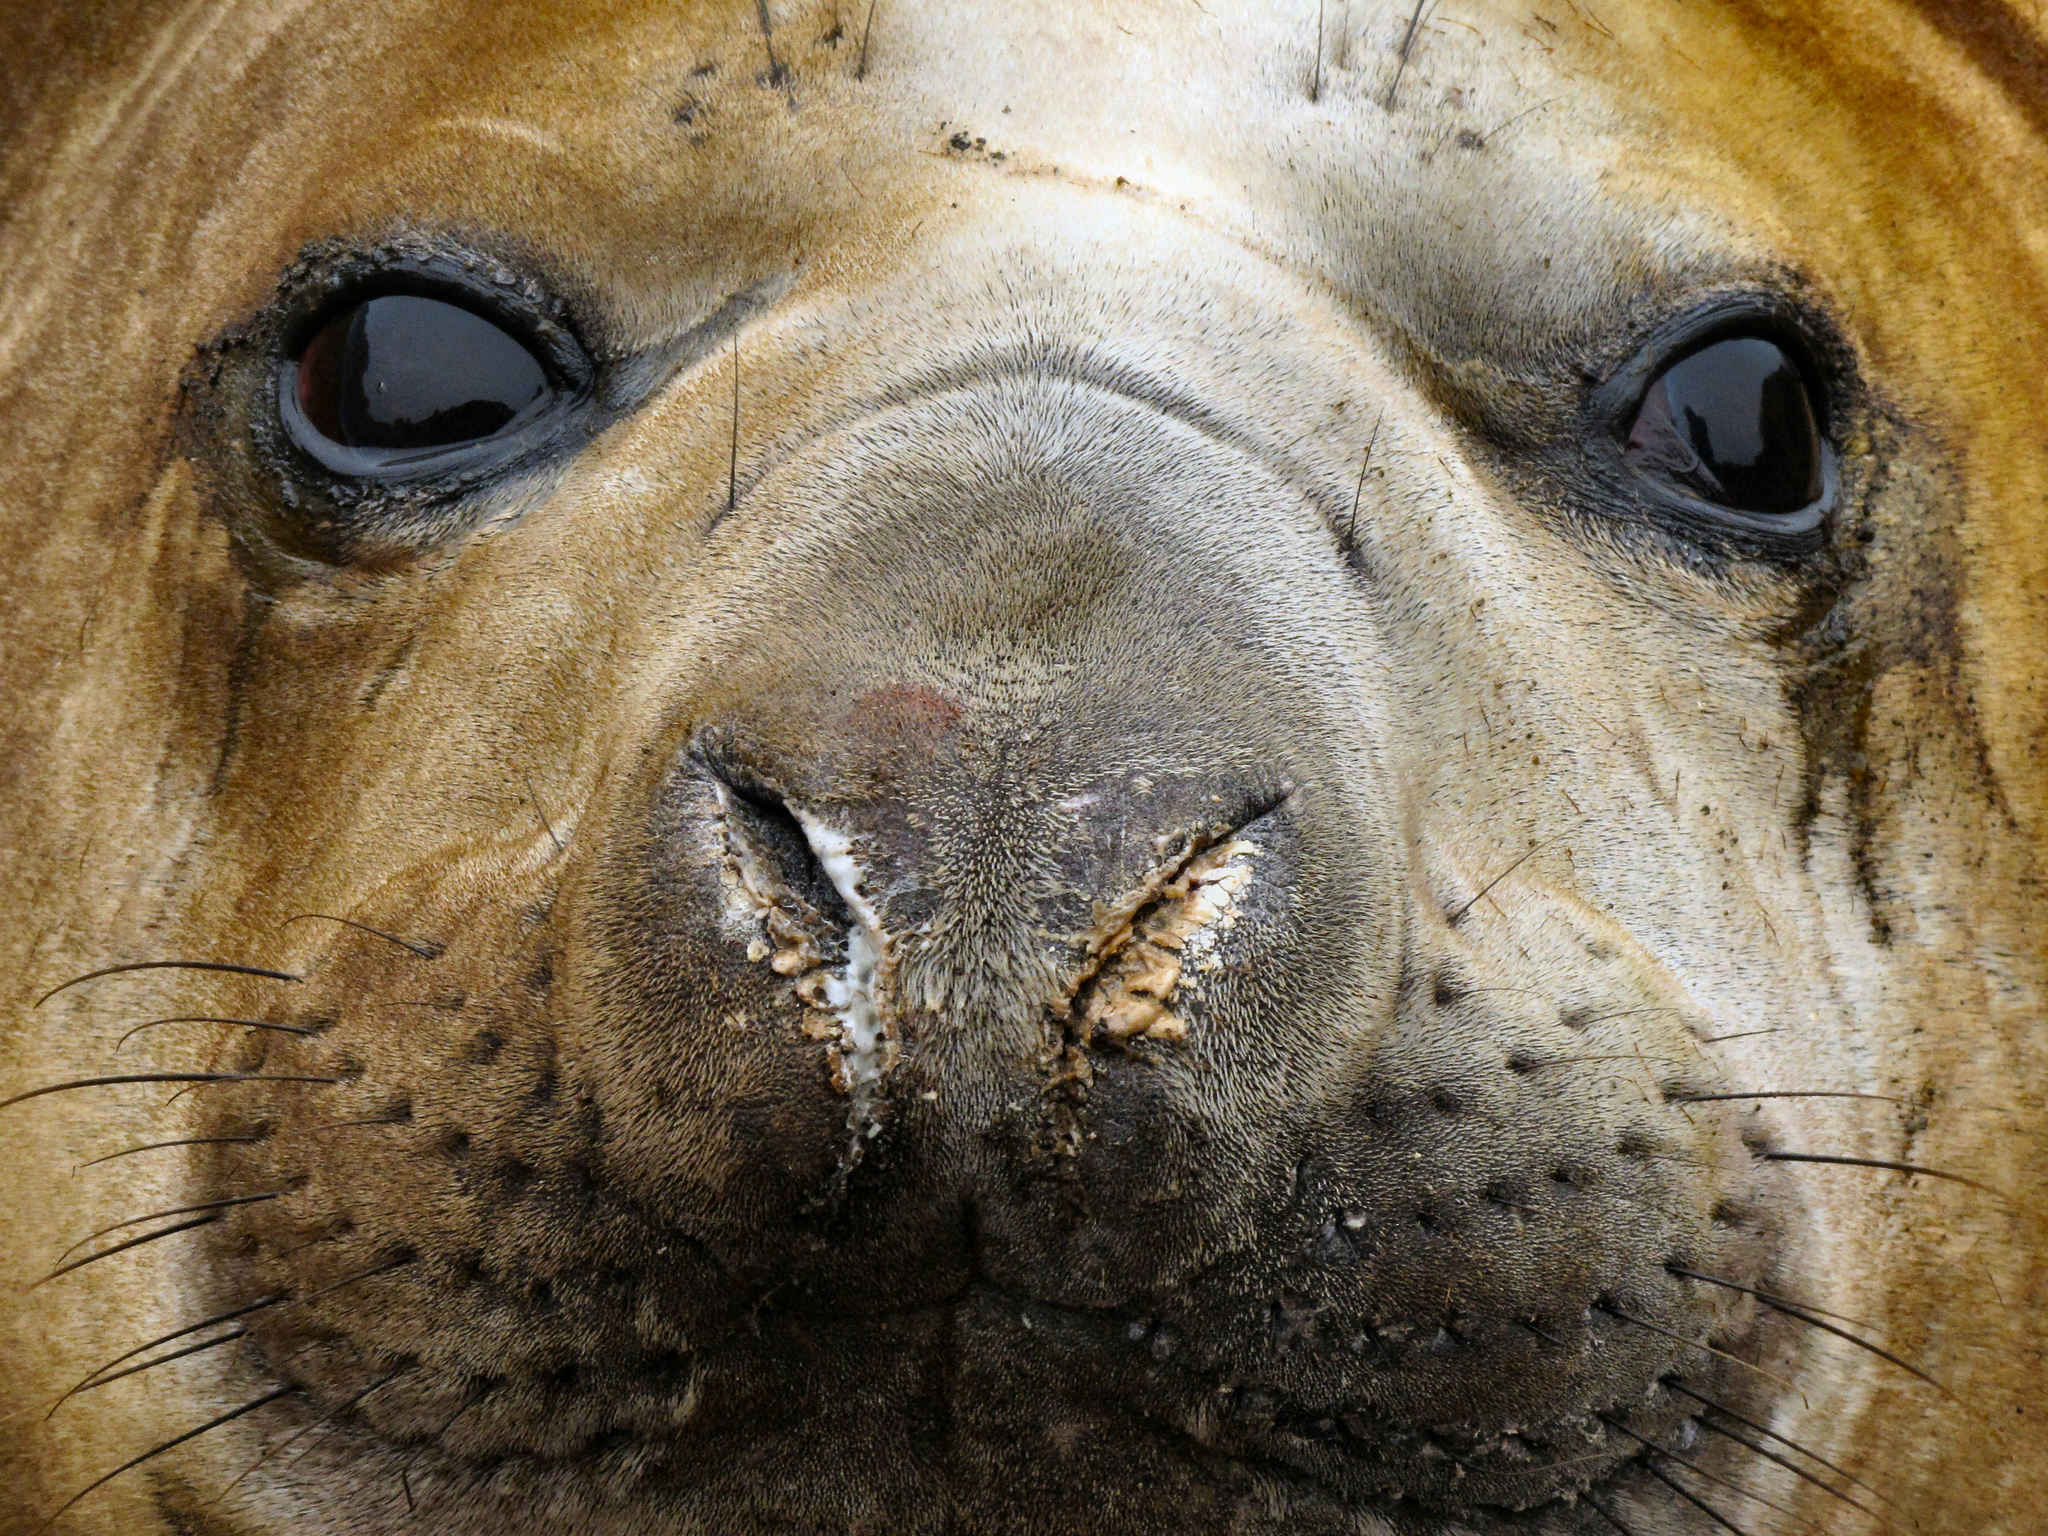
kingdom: Animalia
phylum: Chordata
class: Mammalia
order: Carnivora
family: Phocidae
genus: Mirounga
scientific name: Mirounga leonina
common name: Southern elephant seal
